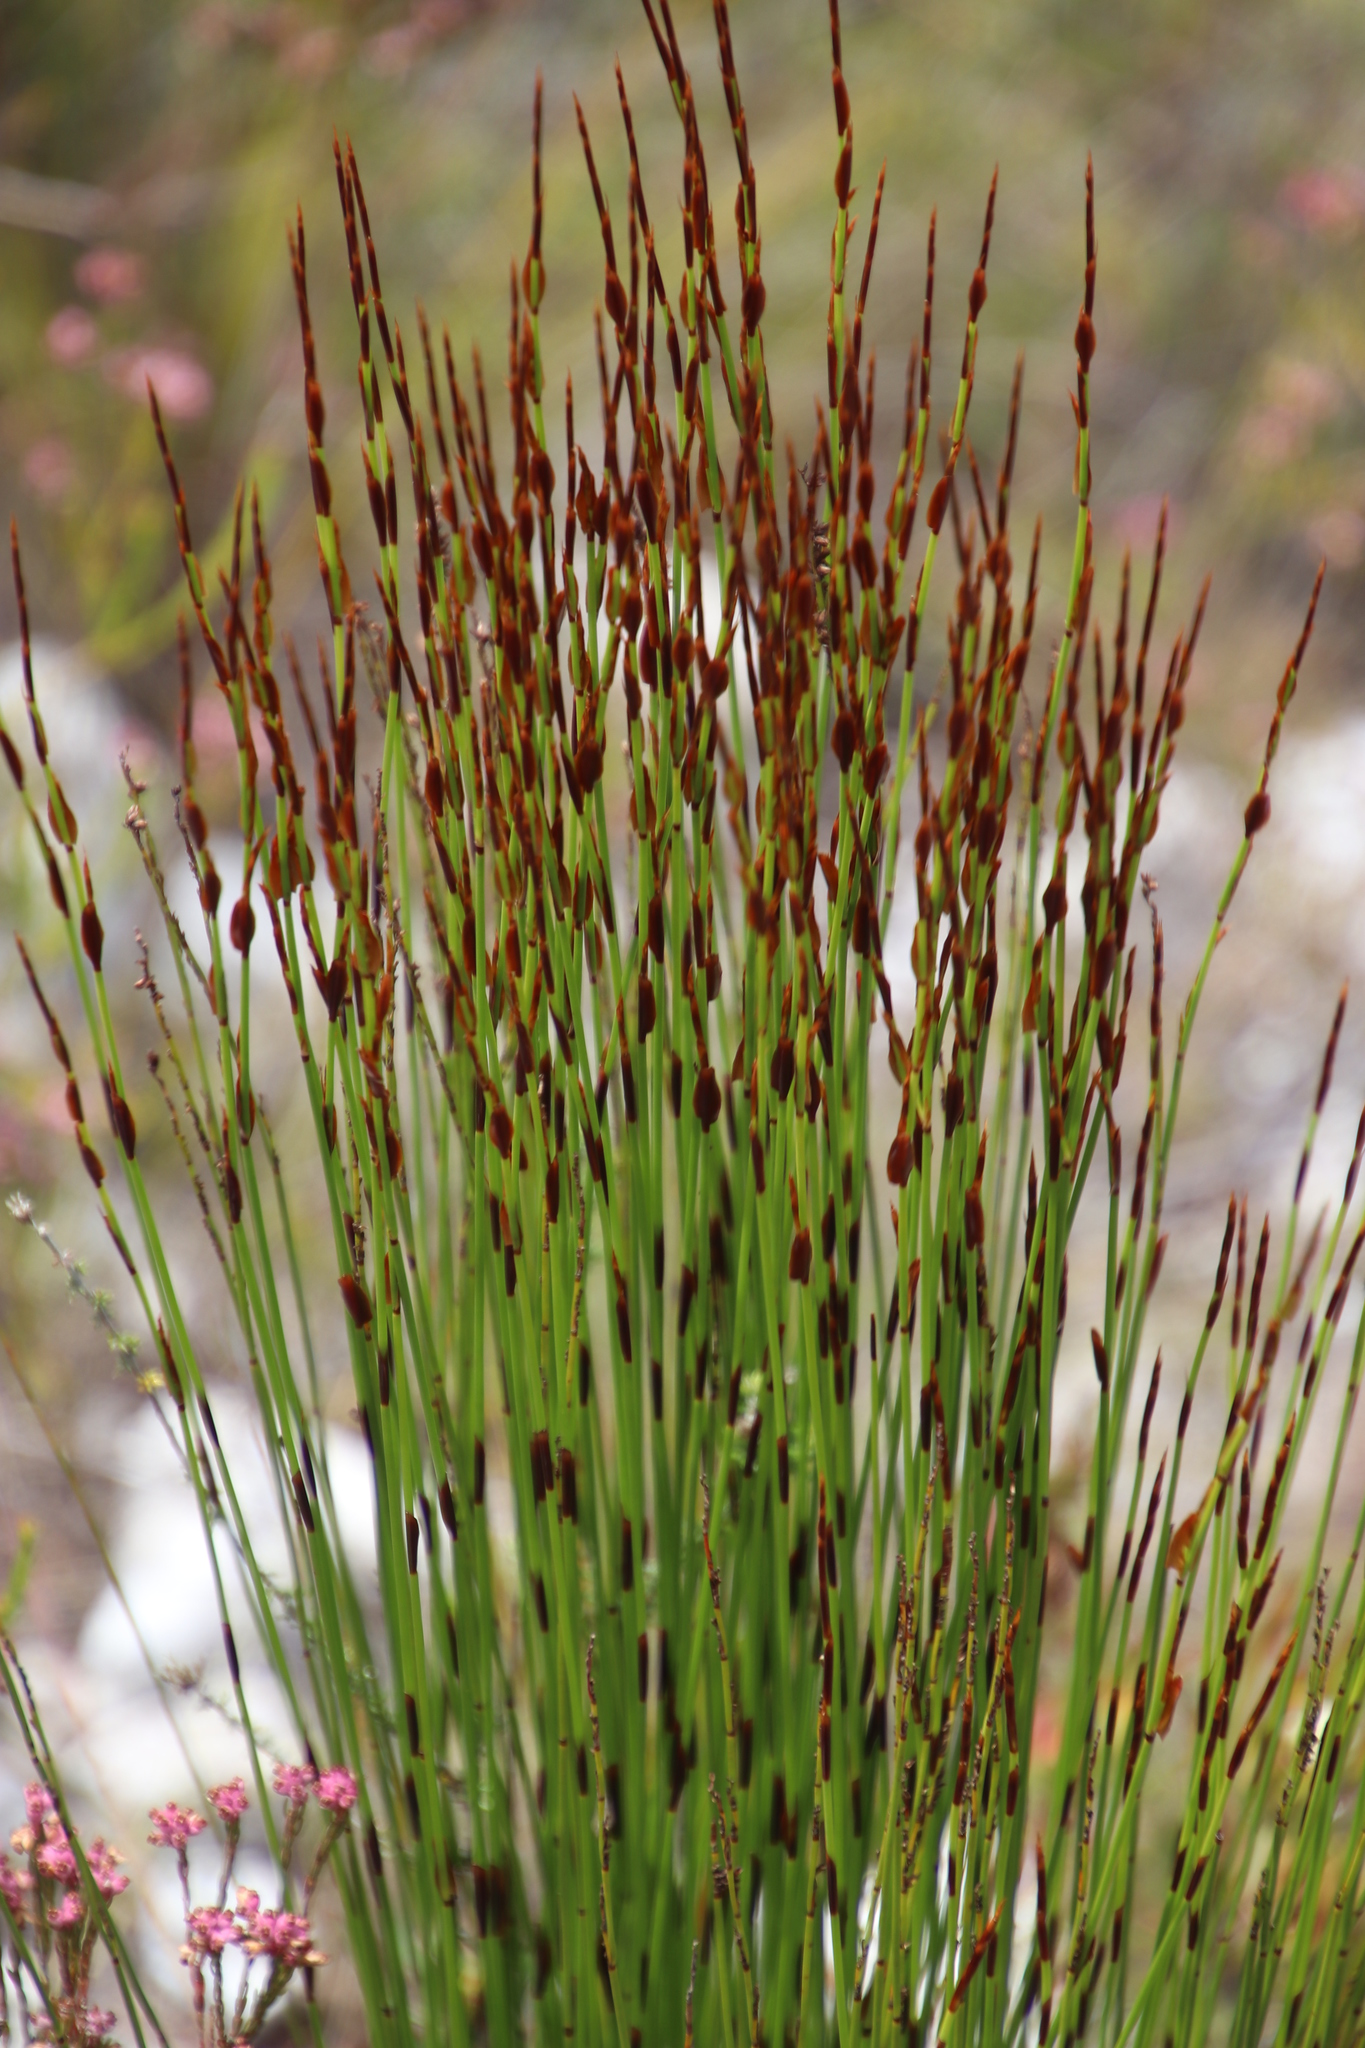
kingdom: Plantae
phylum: Tracheophyta
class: Liliopsida
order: Poales
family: Restionaceae
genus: Elegia
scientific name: Elegia hookeriana
